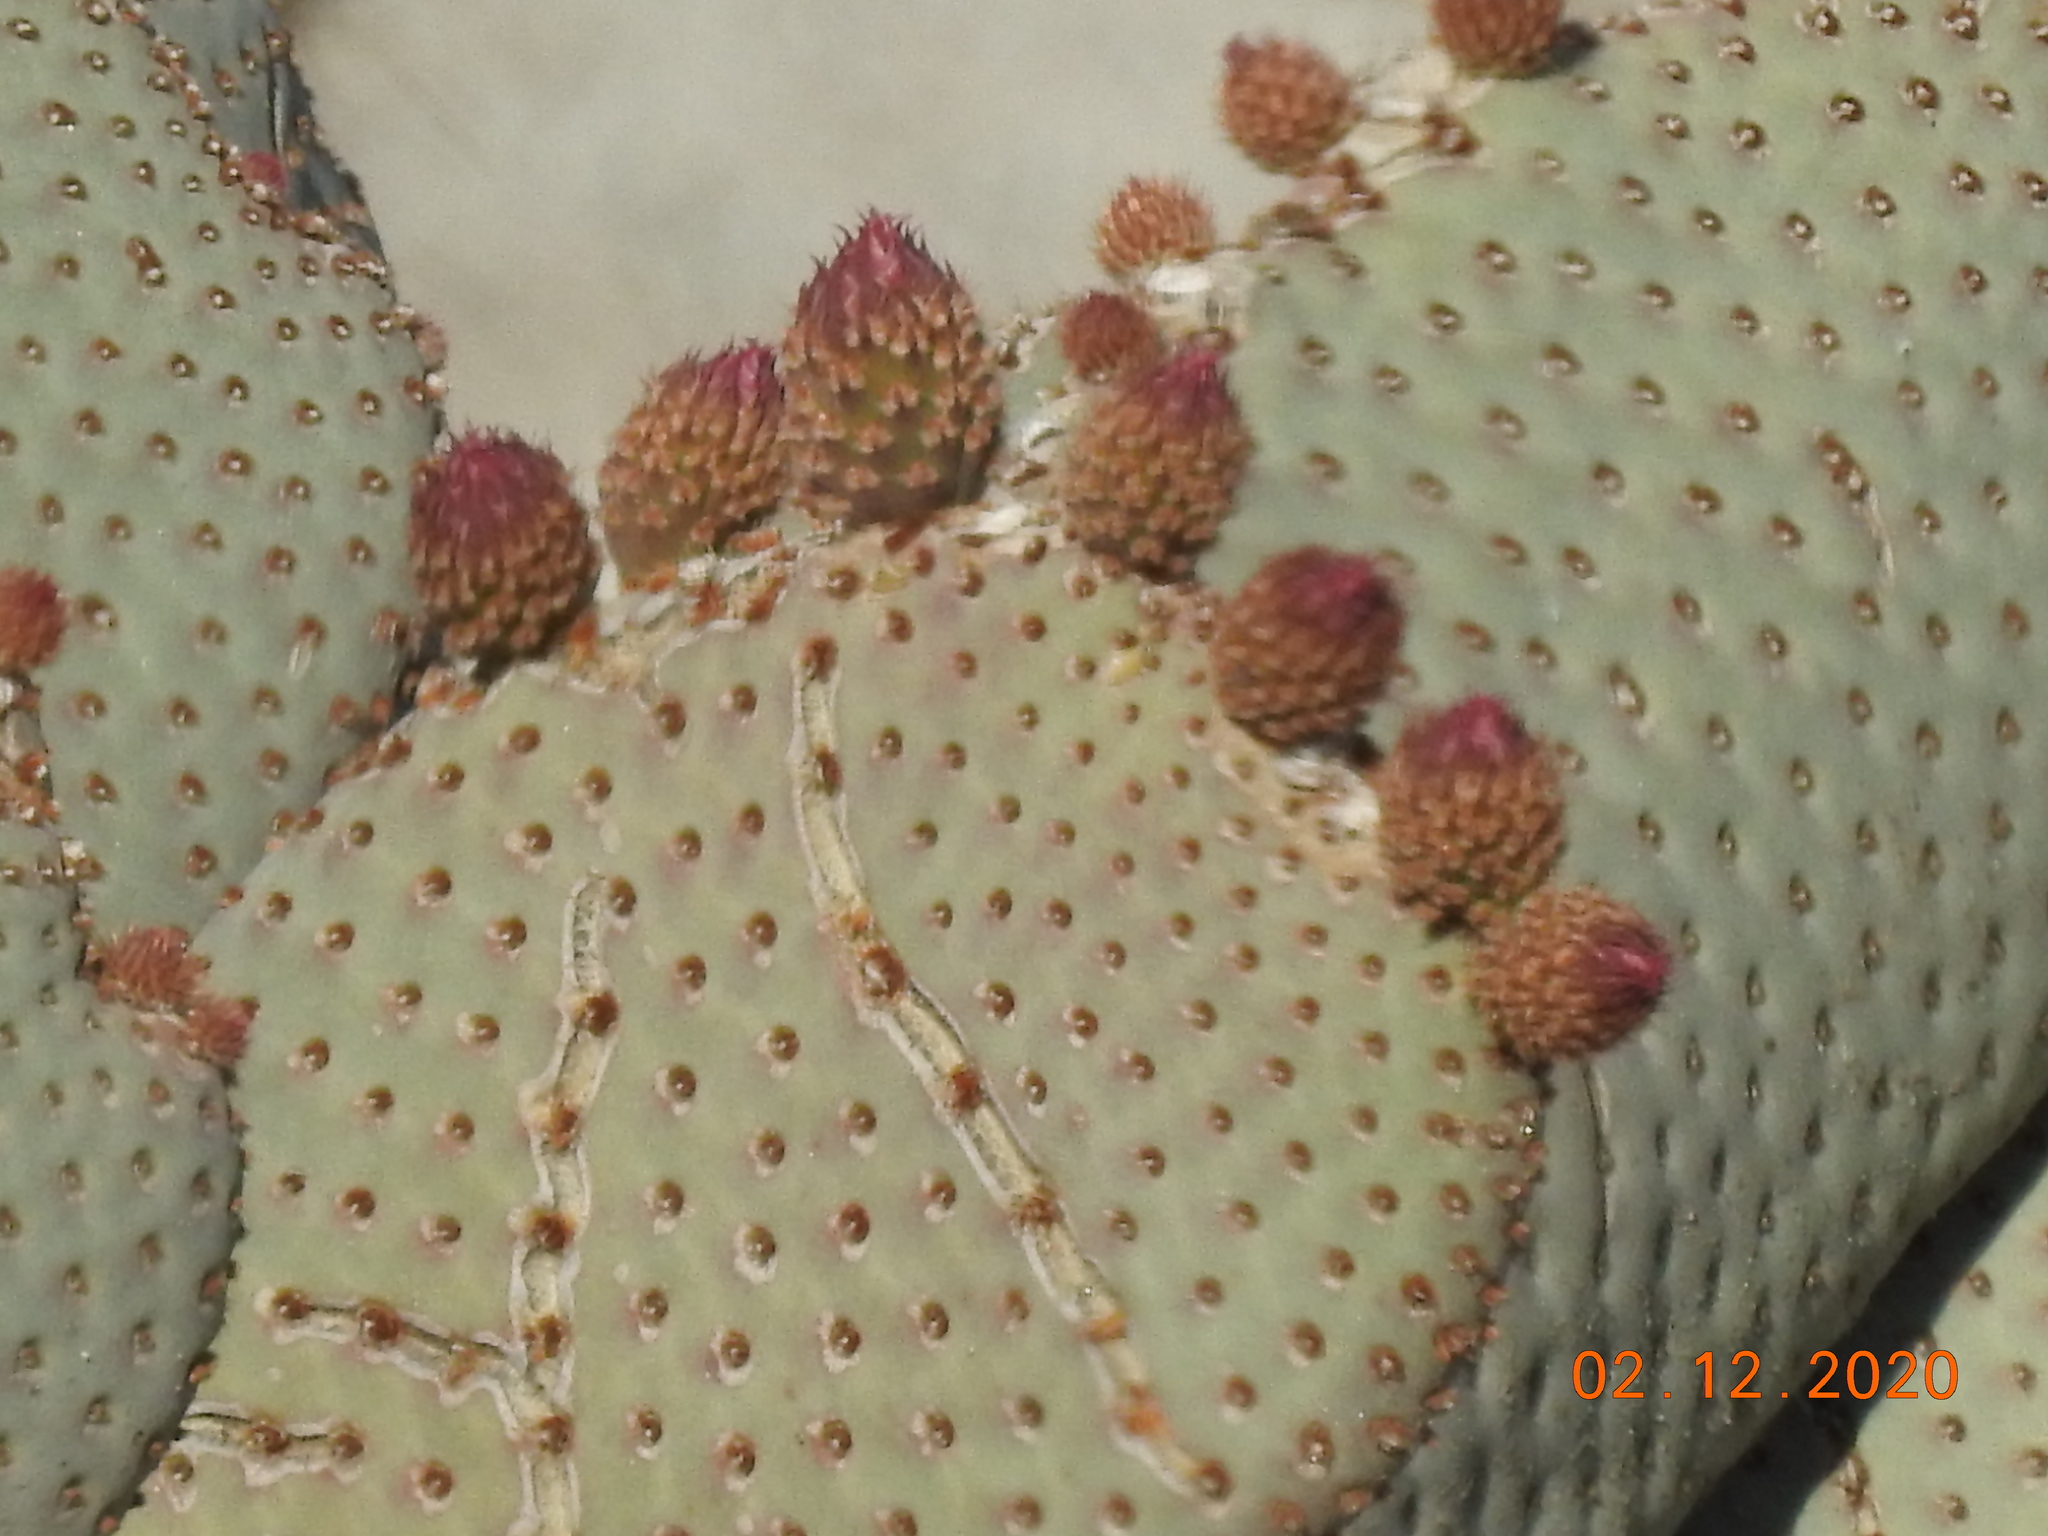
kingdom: Plantae
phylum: Tracheophyta
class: Magnoliopsida
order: Caryophyllales
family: Cactaceae
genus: Opuntia
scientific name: Opuntia basilaris
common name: Beavertail prickly-pear
